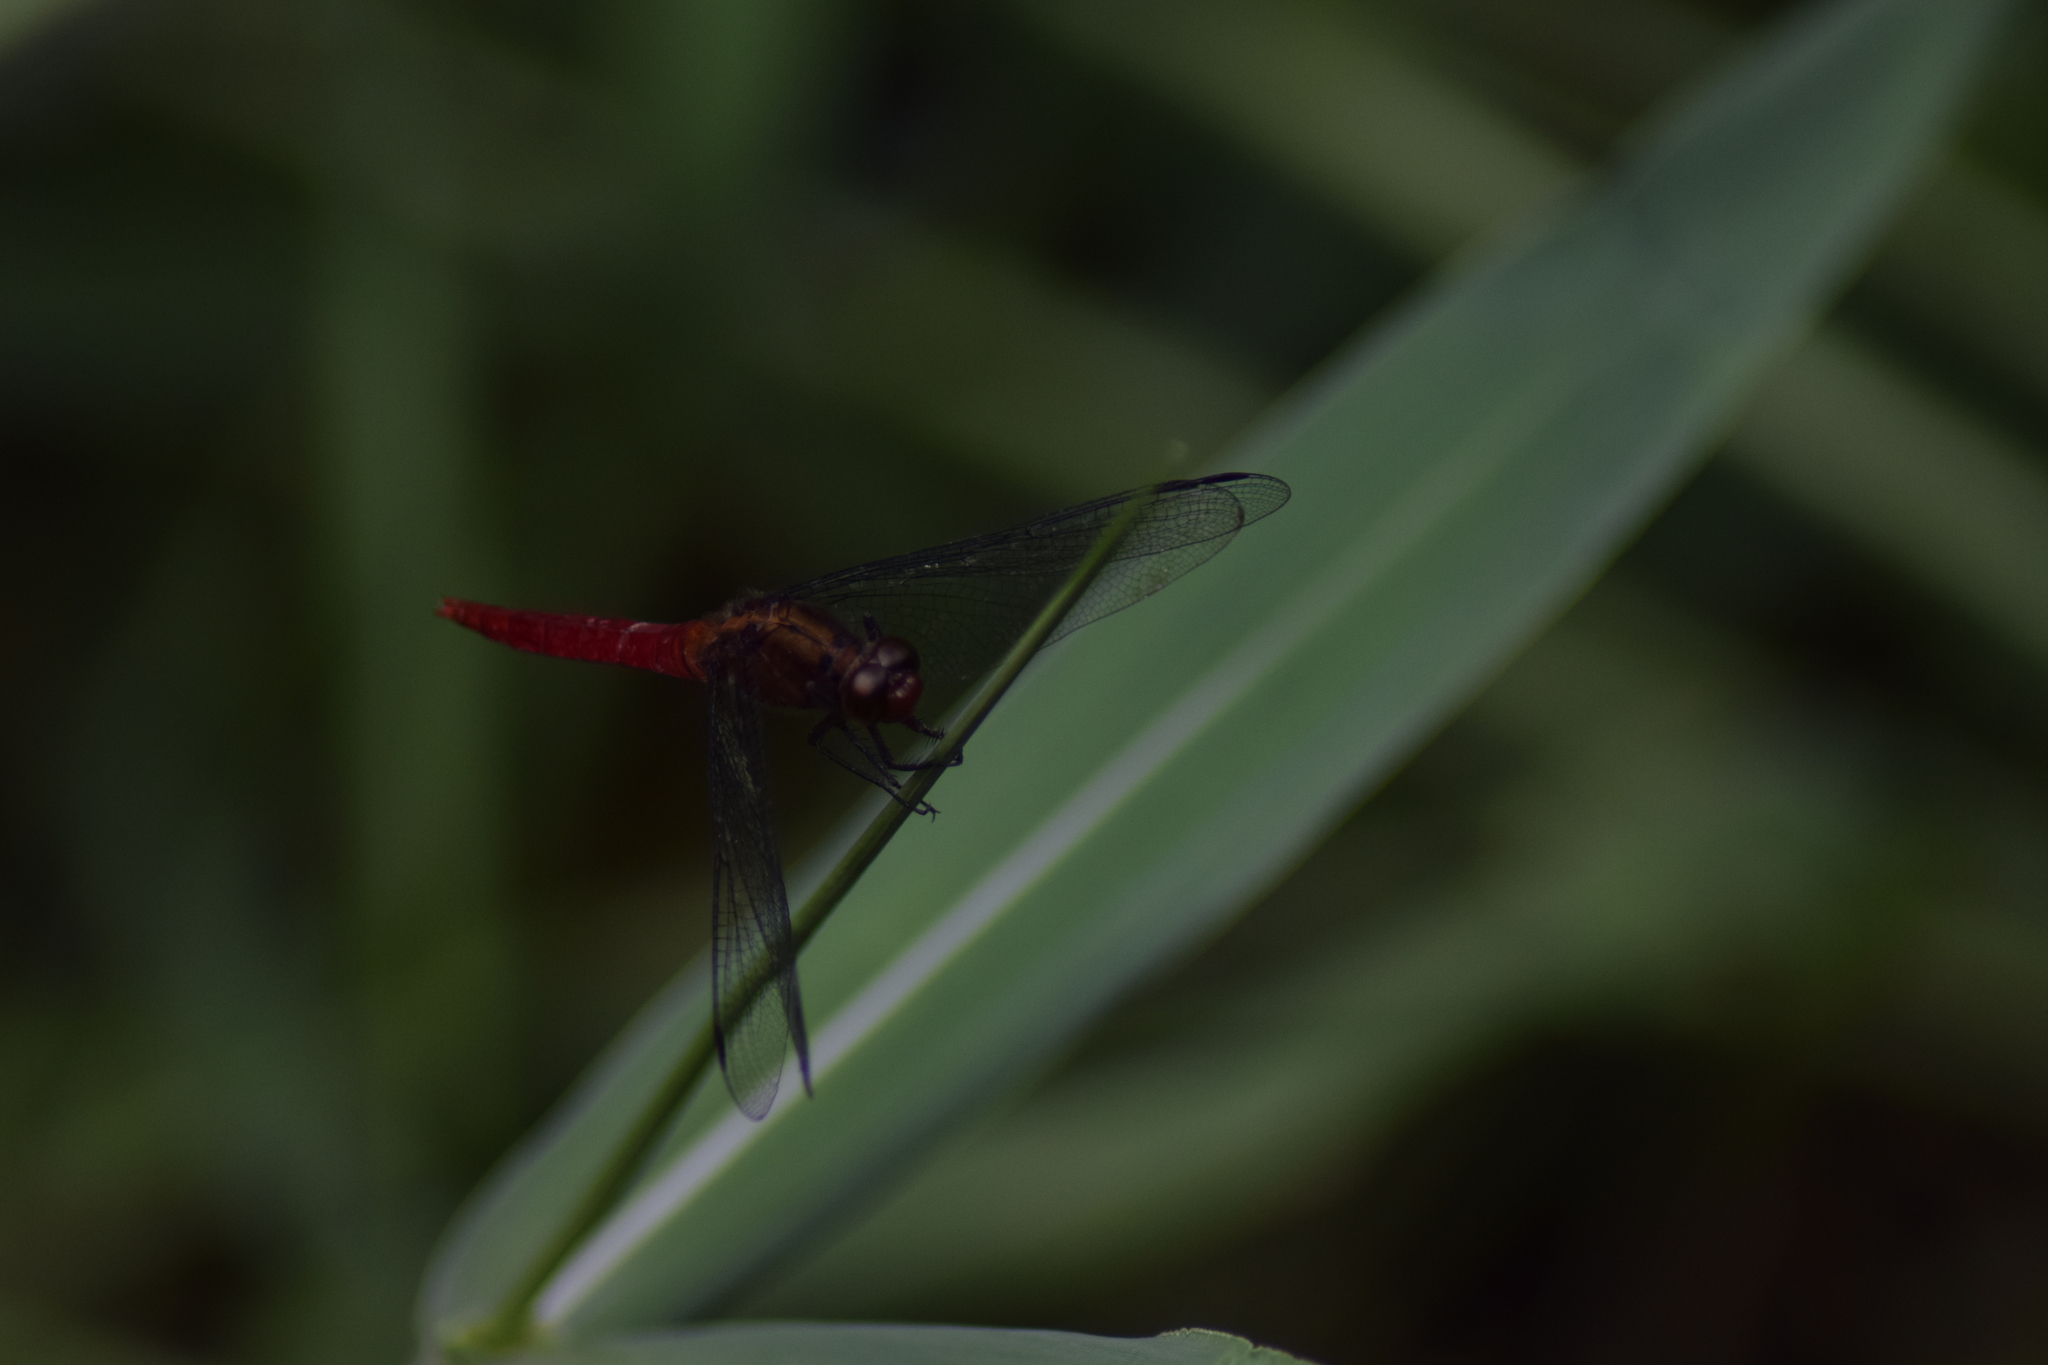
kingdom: Animalia
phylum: Arthropoda
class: Insecta
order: Odonata
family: Libellulidae
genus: Orthetrum
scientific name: Orthetrum chrysis
